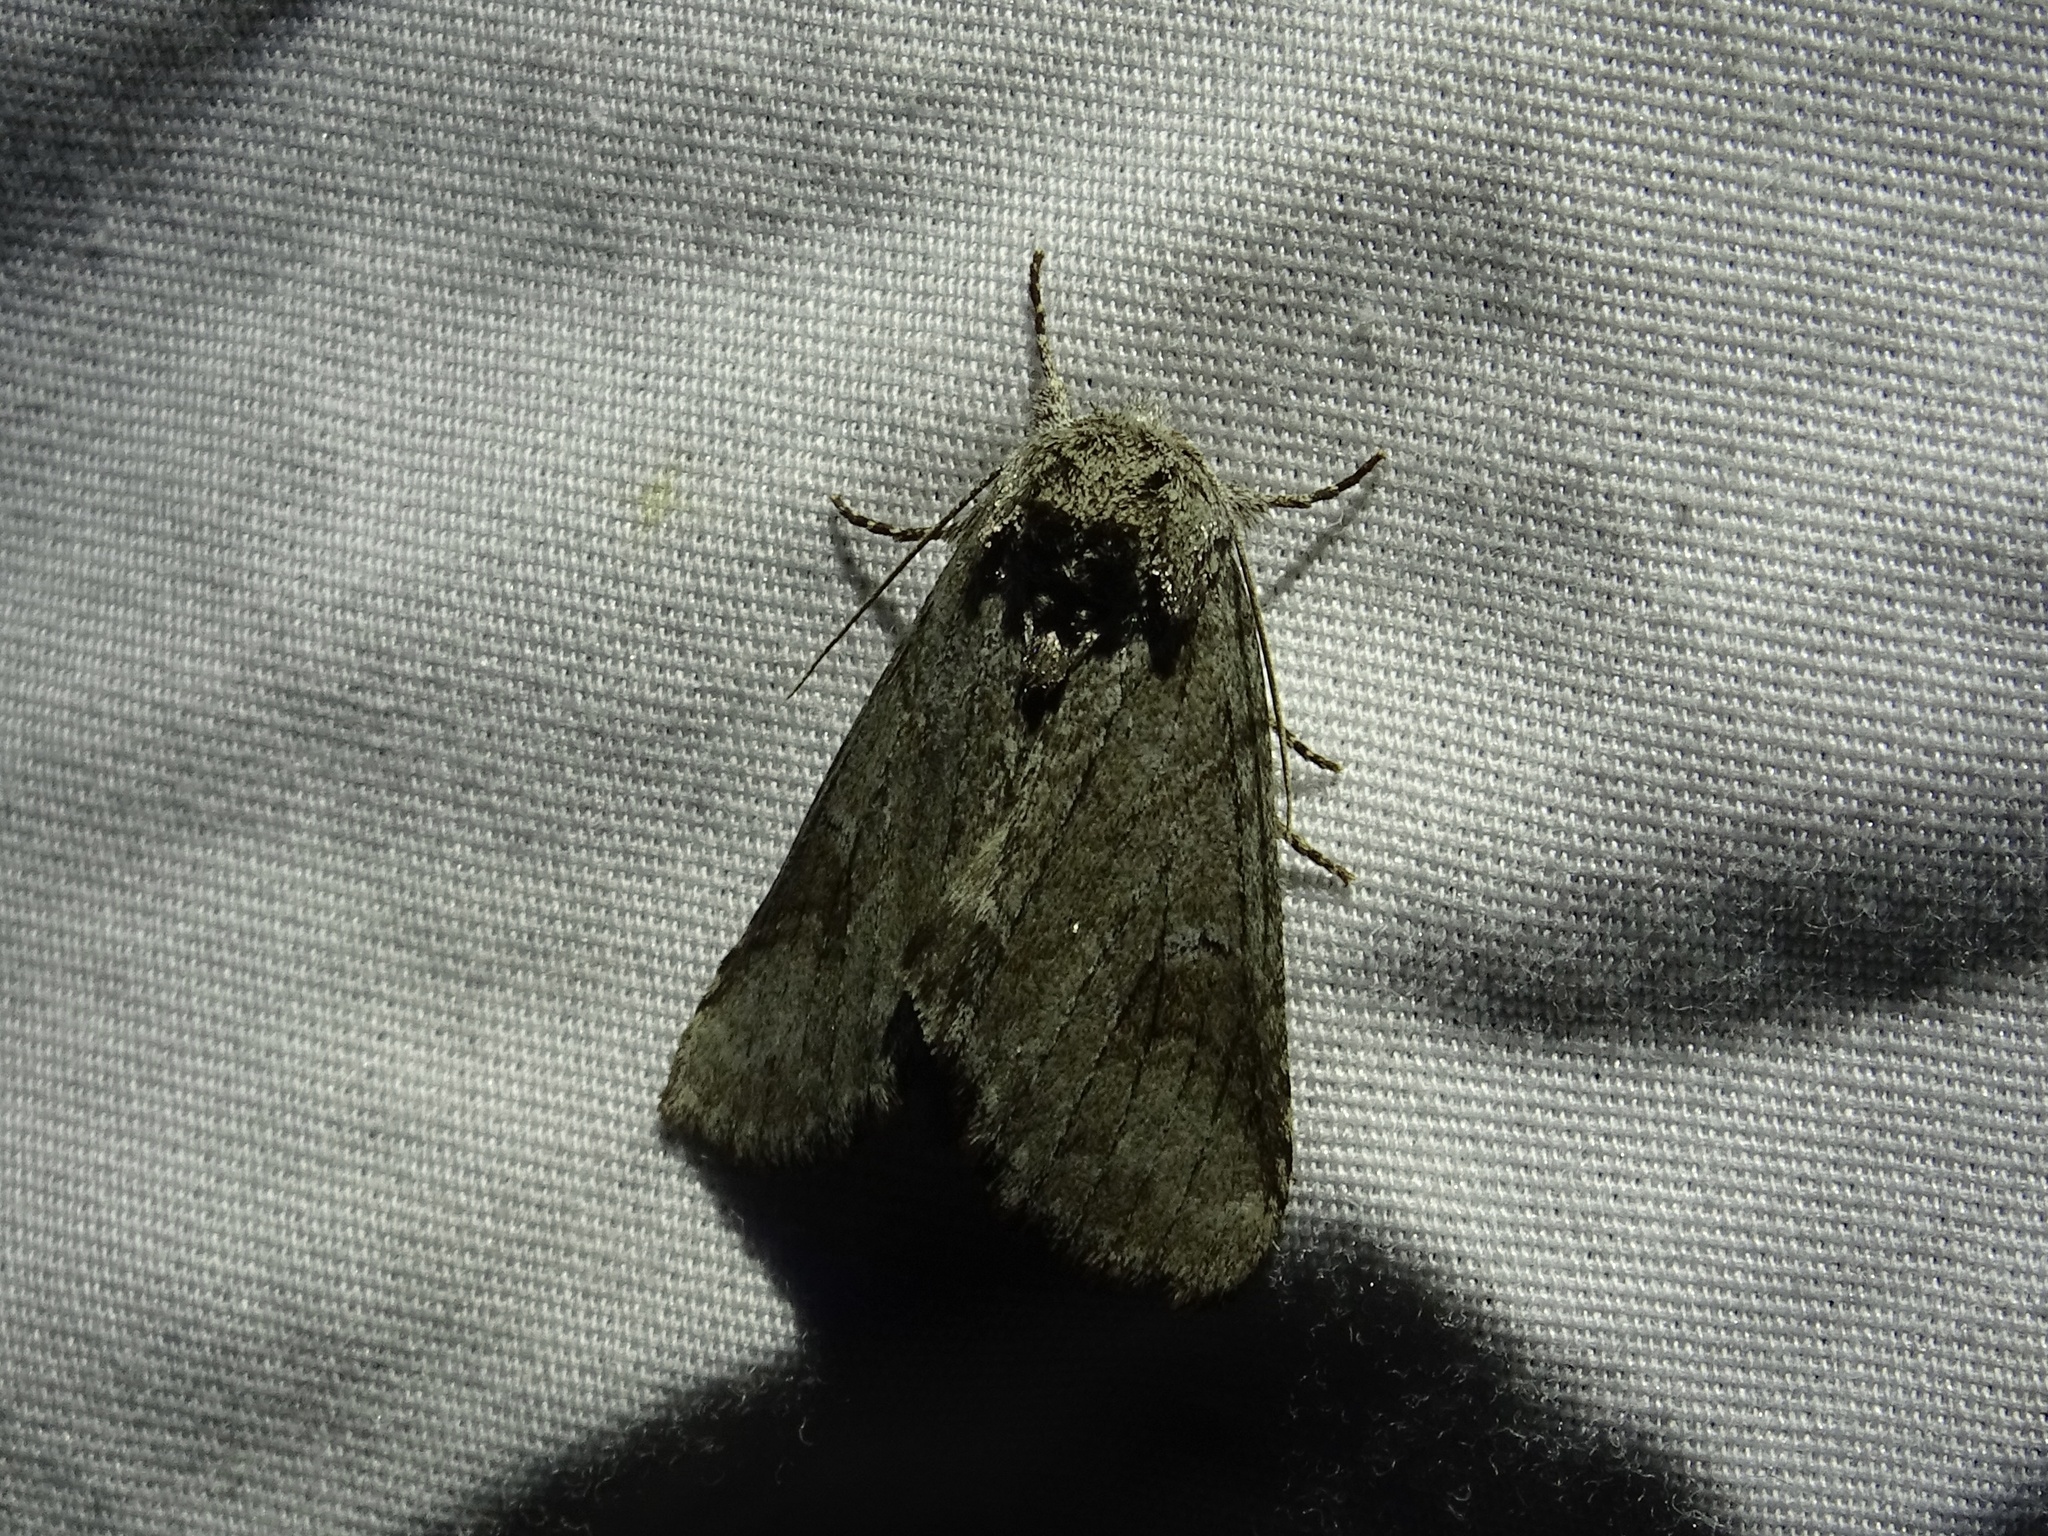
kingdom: Animalia
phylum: Arthropoda
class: Insecta
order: Lepidoptera
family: Notodontidae
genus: Lochmaeus
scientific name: Lochmaeus bilineata
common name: Double-lined prominent
